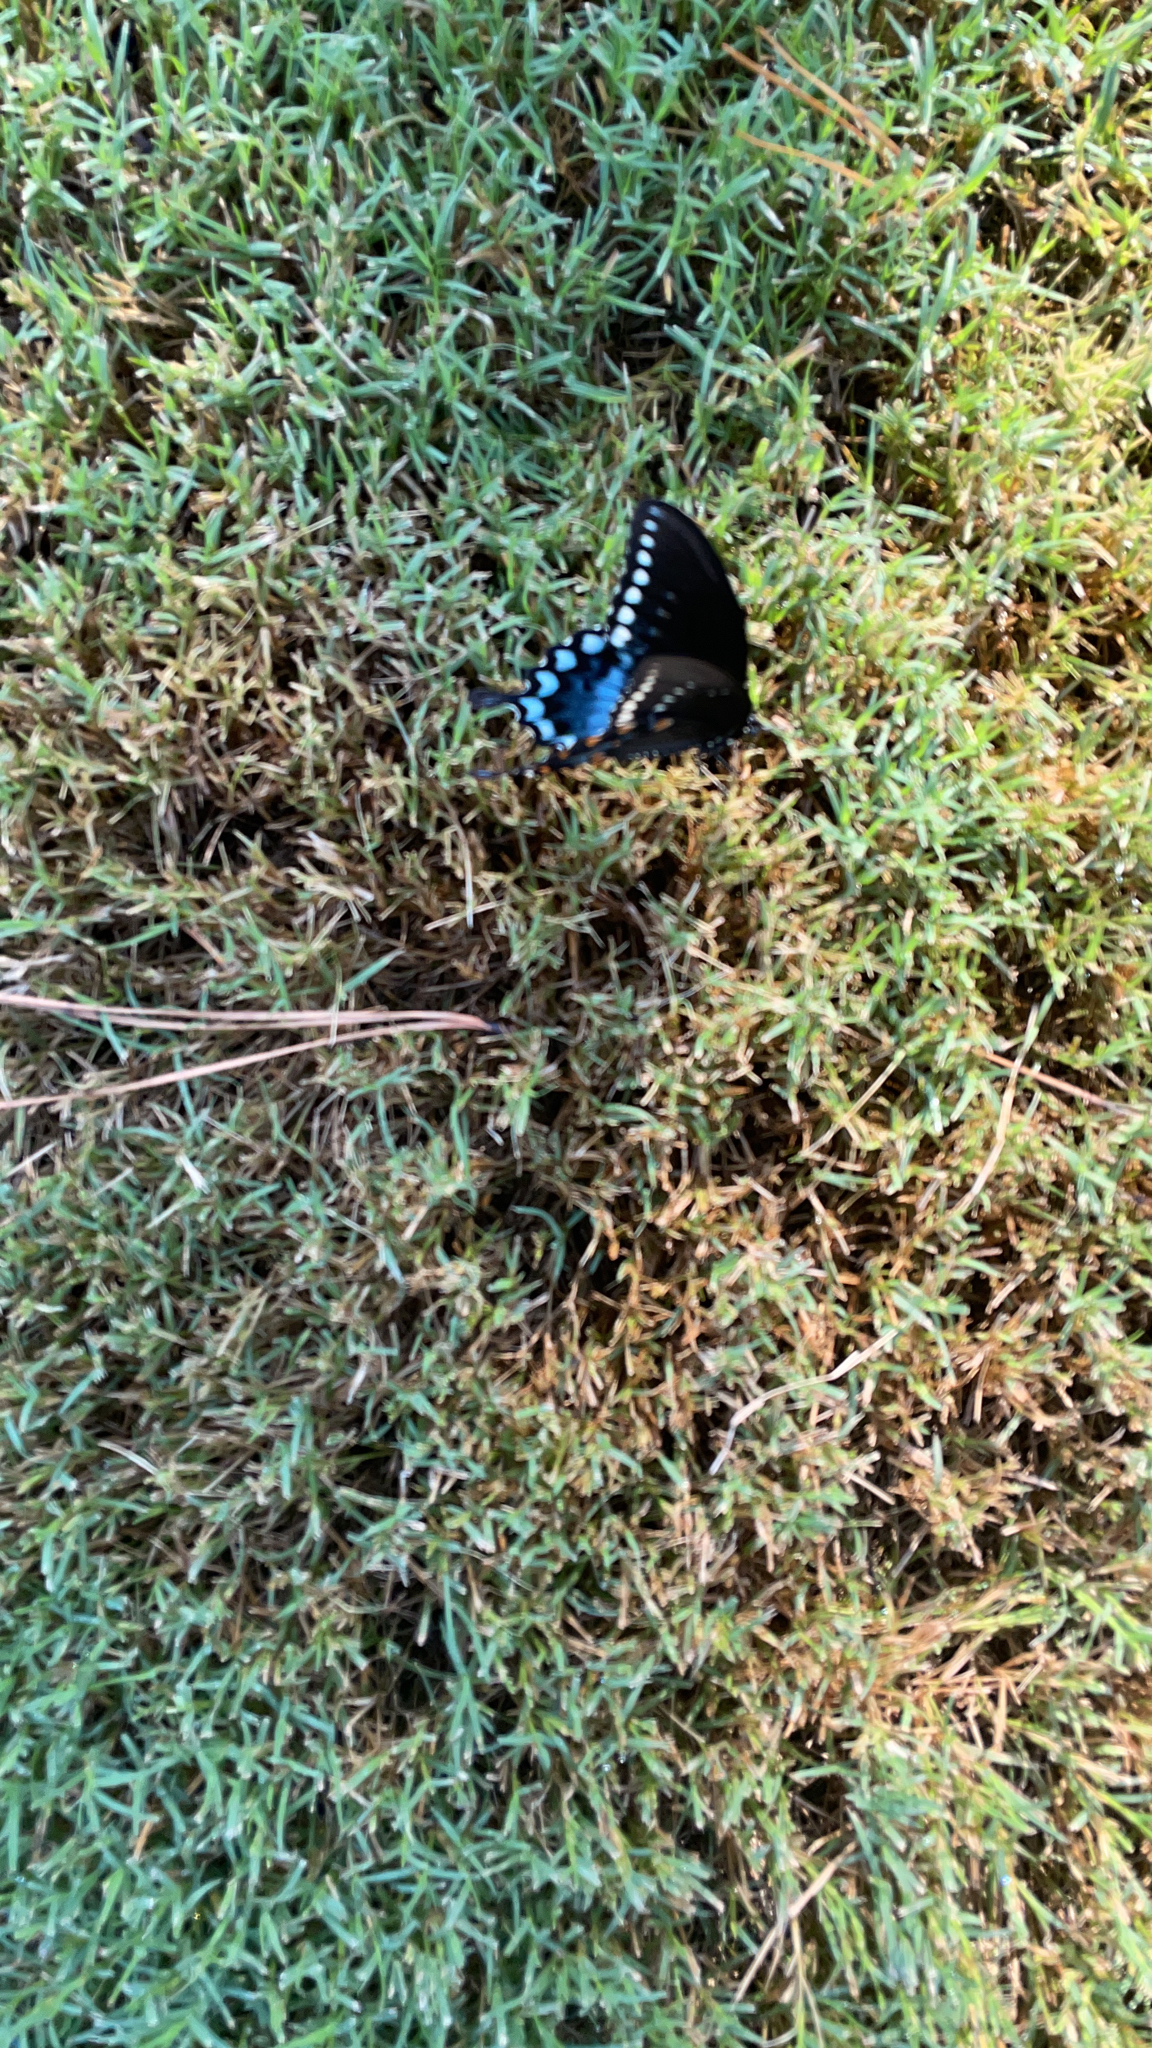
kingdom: Animalia
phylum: Arthropoda
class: Insecta
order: Lepidoptera
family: Papilionidae
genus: Papilio
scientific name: Papilio troilus
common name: Spicebush swallowtail
